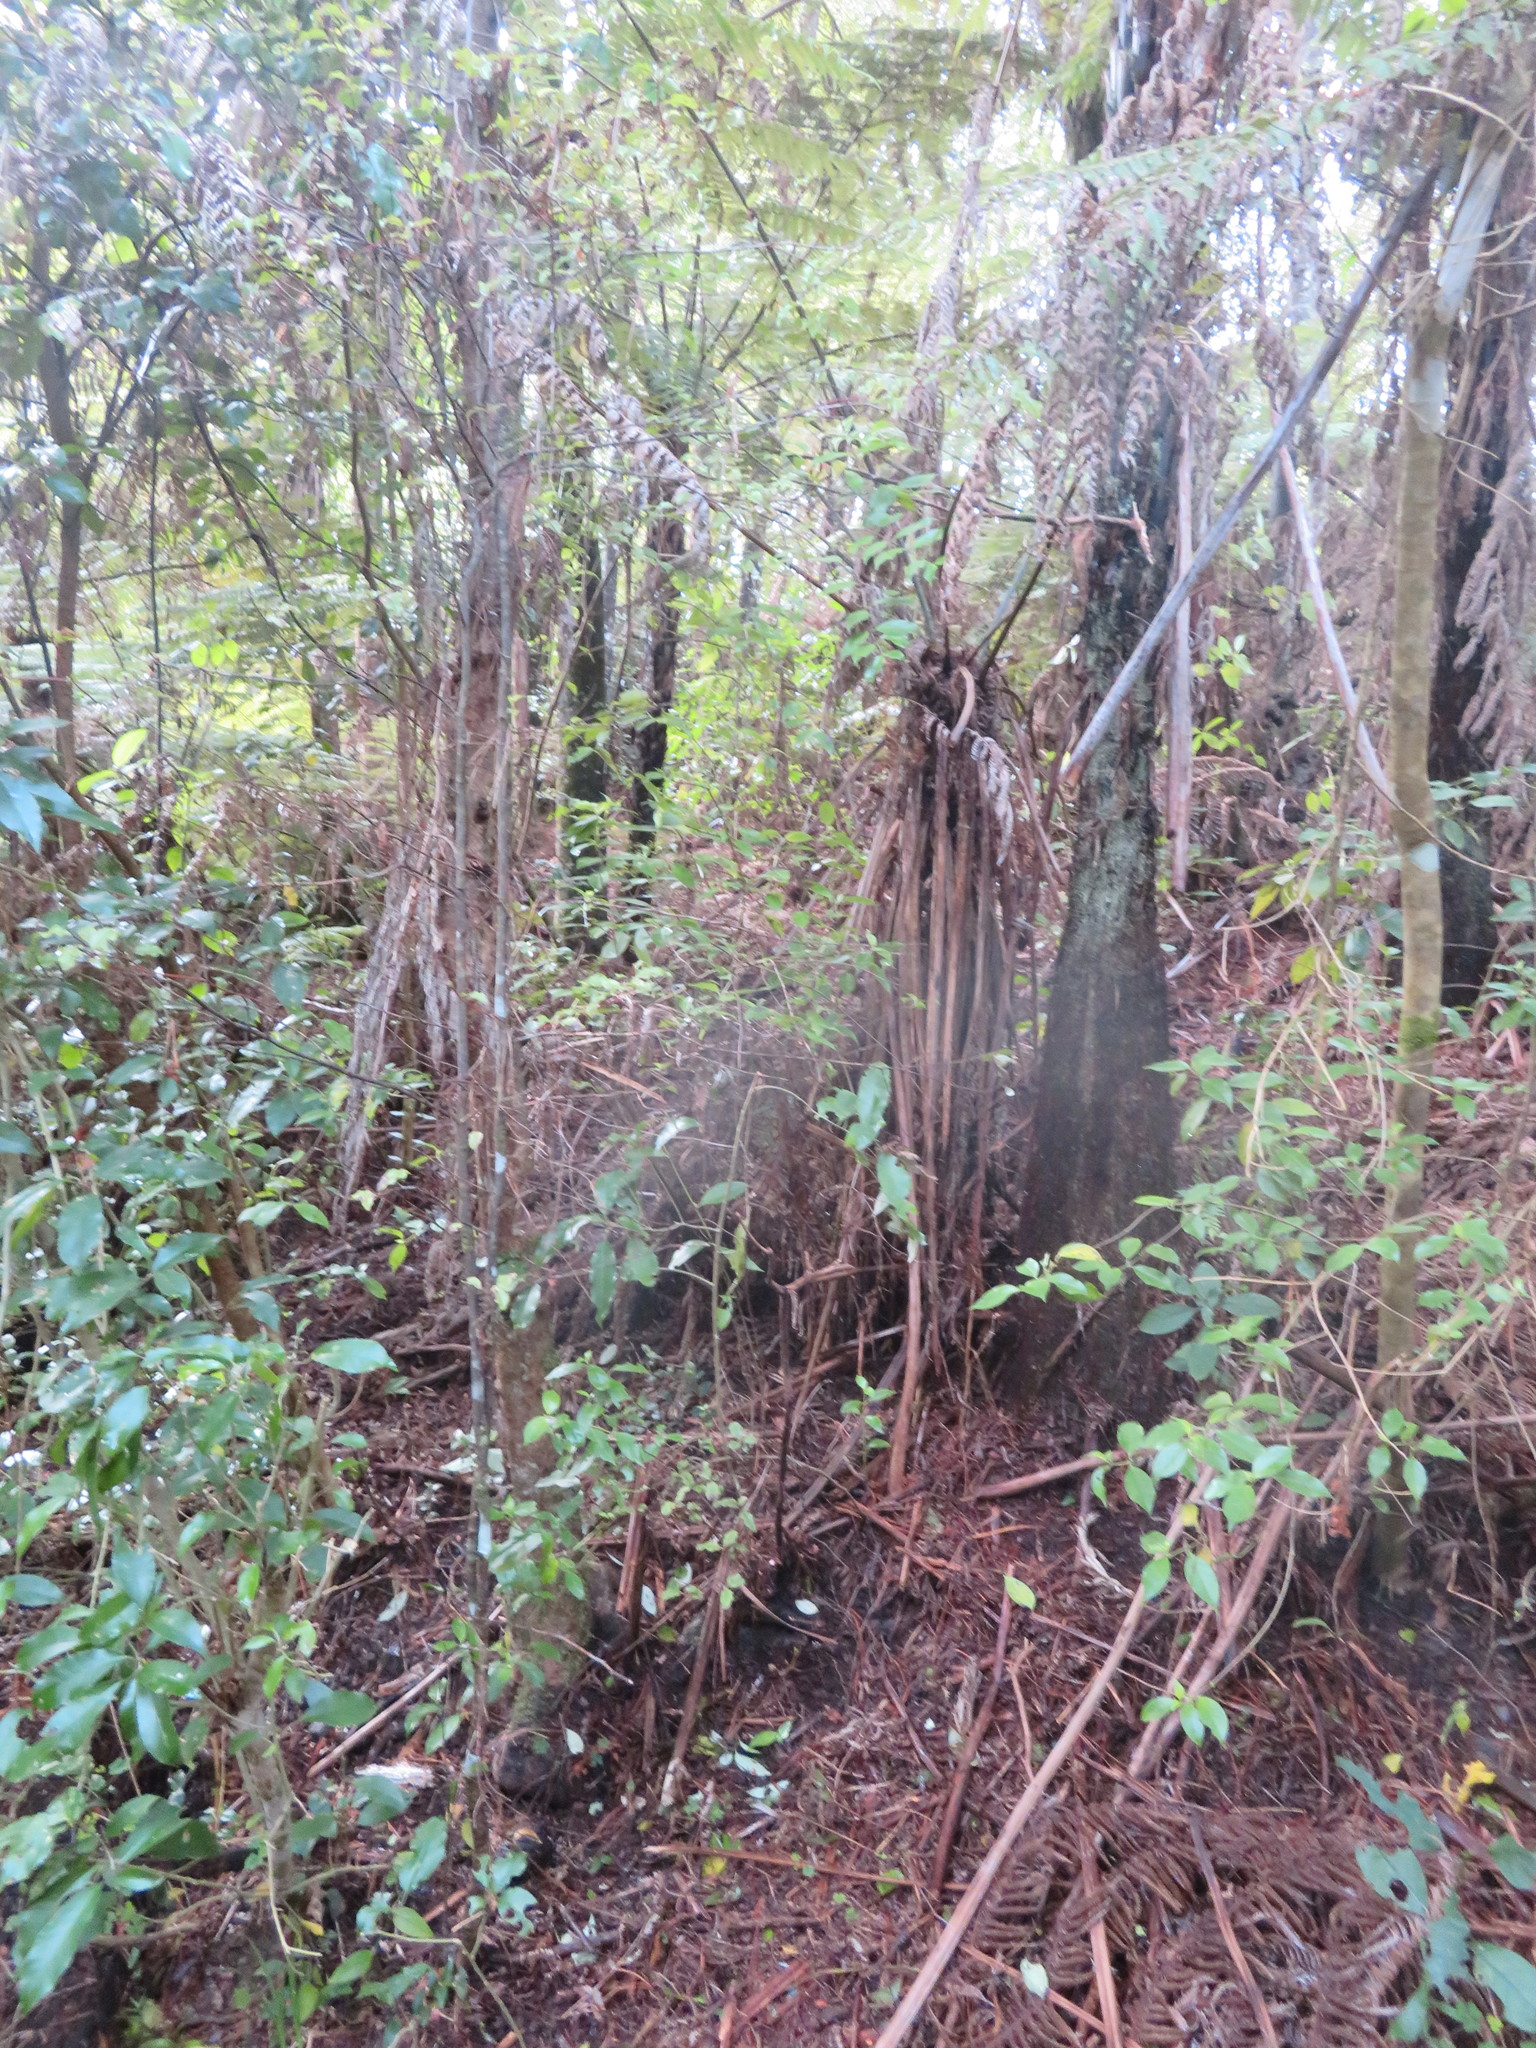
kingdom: Plantae
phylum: Tracheophyta
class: Magnoliopsida
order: Gentianales
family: Loganiaceae
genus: Geniostoma
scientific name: Geniostoma ligustrifolium
